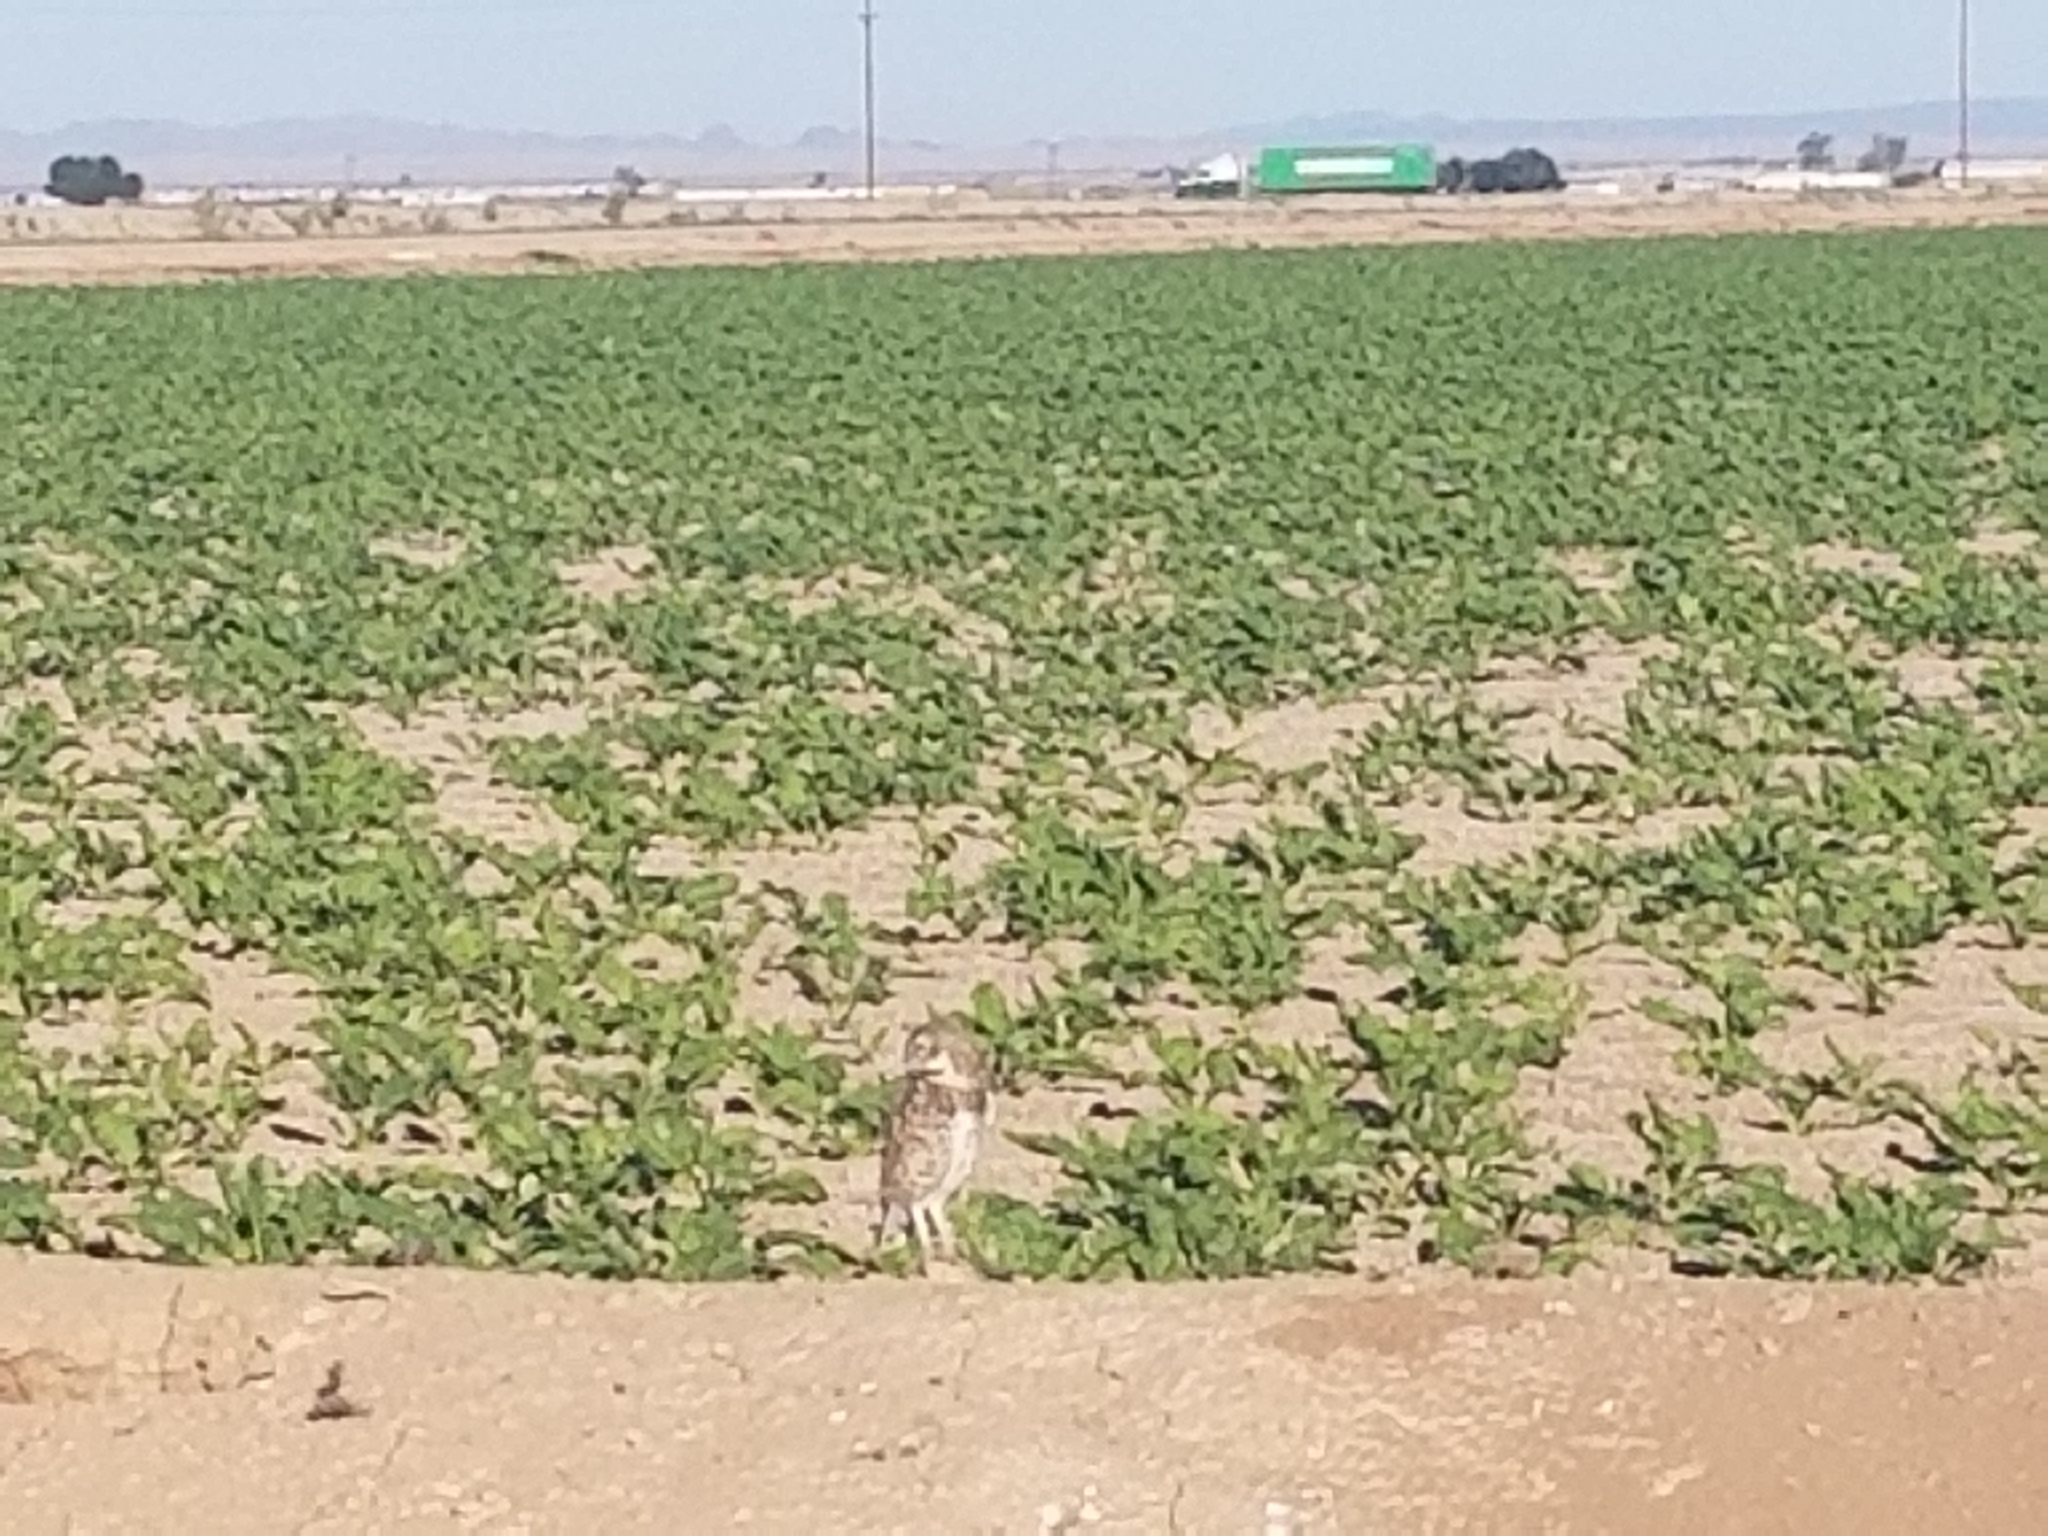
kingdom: Animalia
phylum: Chordata
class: Aves
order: Strigiformes
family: Strigidae
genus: Athene
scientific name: Athene cunicularia
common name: Burrowing owl
